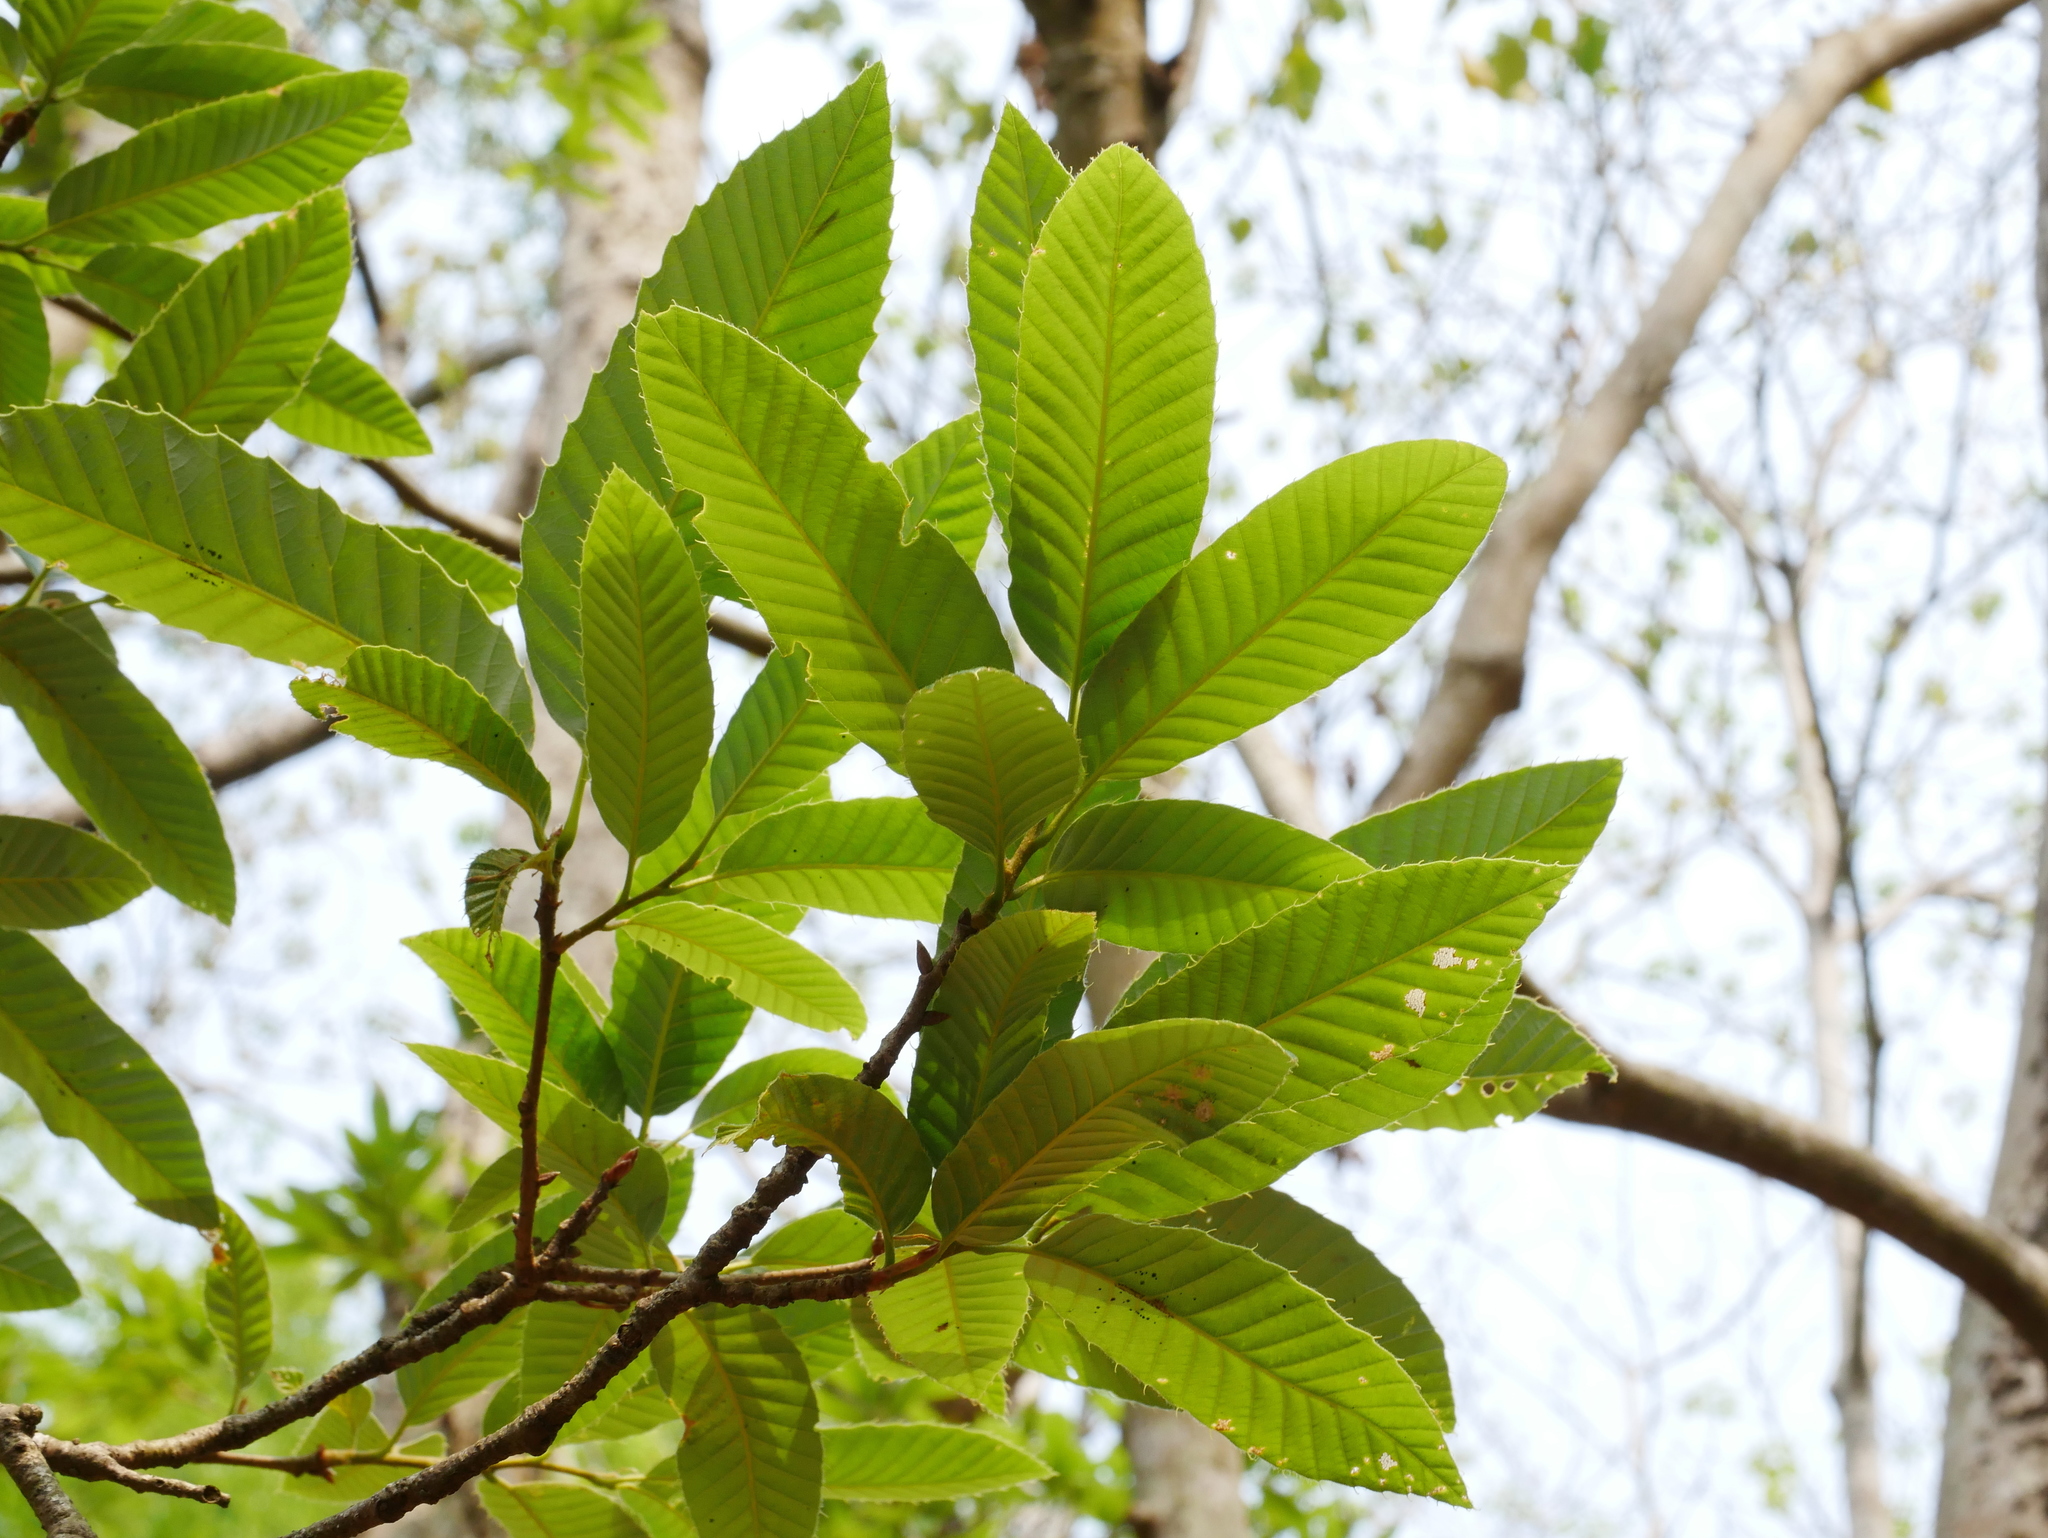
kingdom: Plantae
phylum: Tracheophyta
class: Magnoliopsida
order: Fagales
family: Fagaceae
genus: Quercus
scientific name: Quercus variabilis
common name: Chinese cork oak
